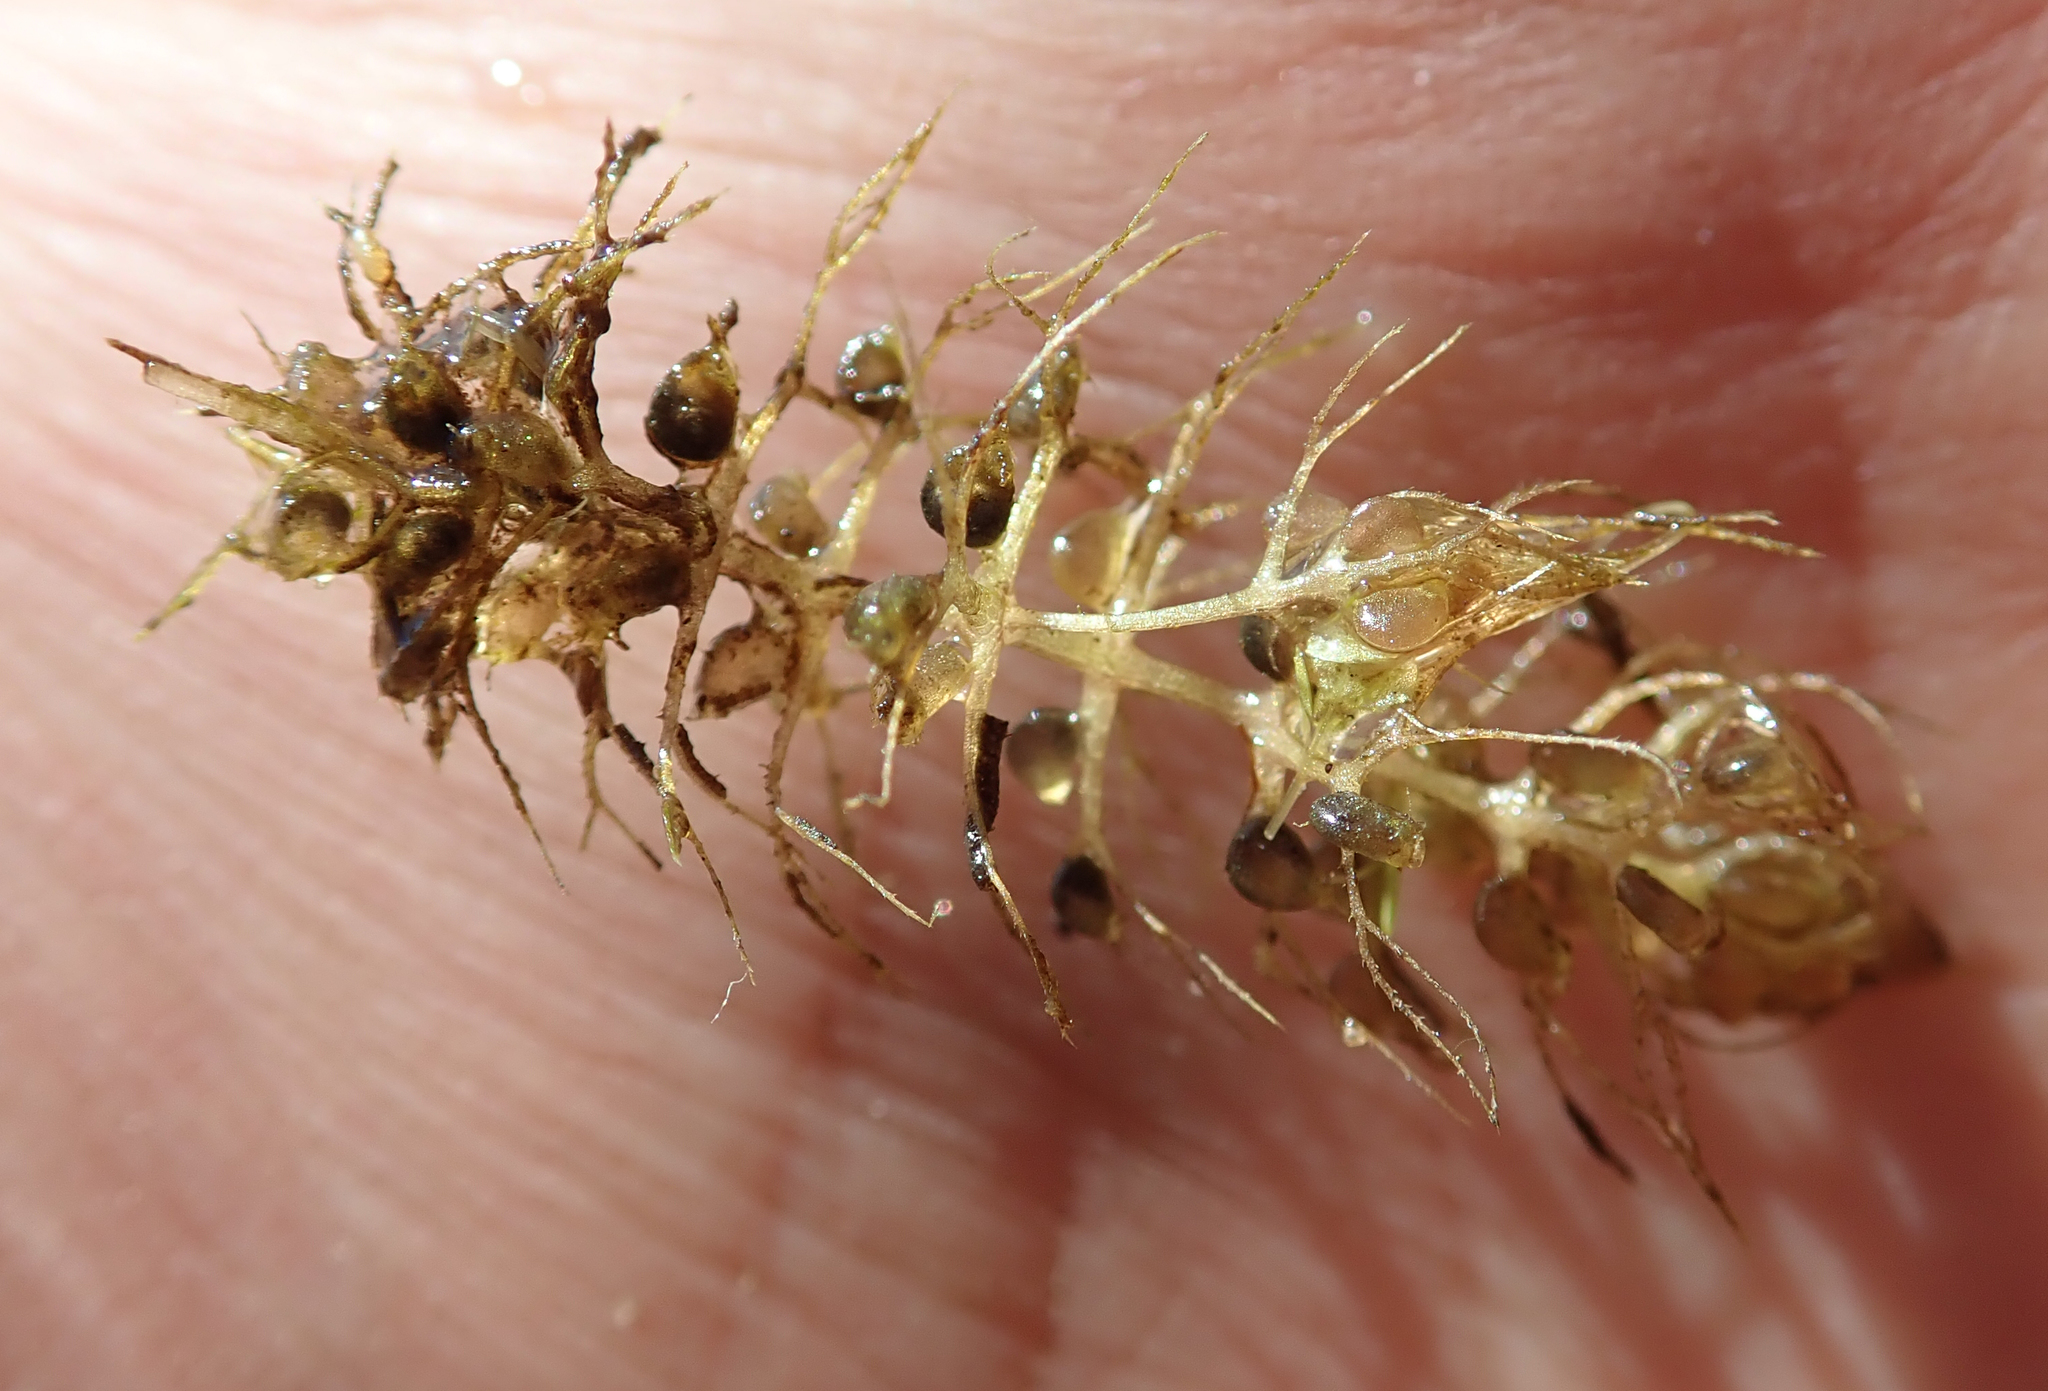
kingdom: Plantae
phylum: Tracheophyta
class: Magnoliopsida
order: Lamiales
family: Lentibulariaceae
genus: Utricularia
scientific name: Utricularia raynalii
